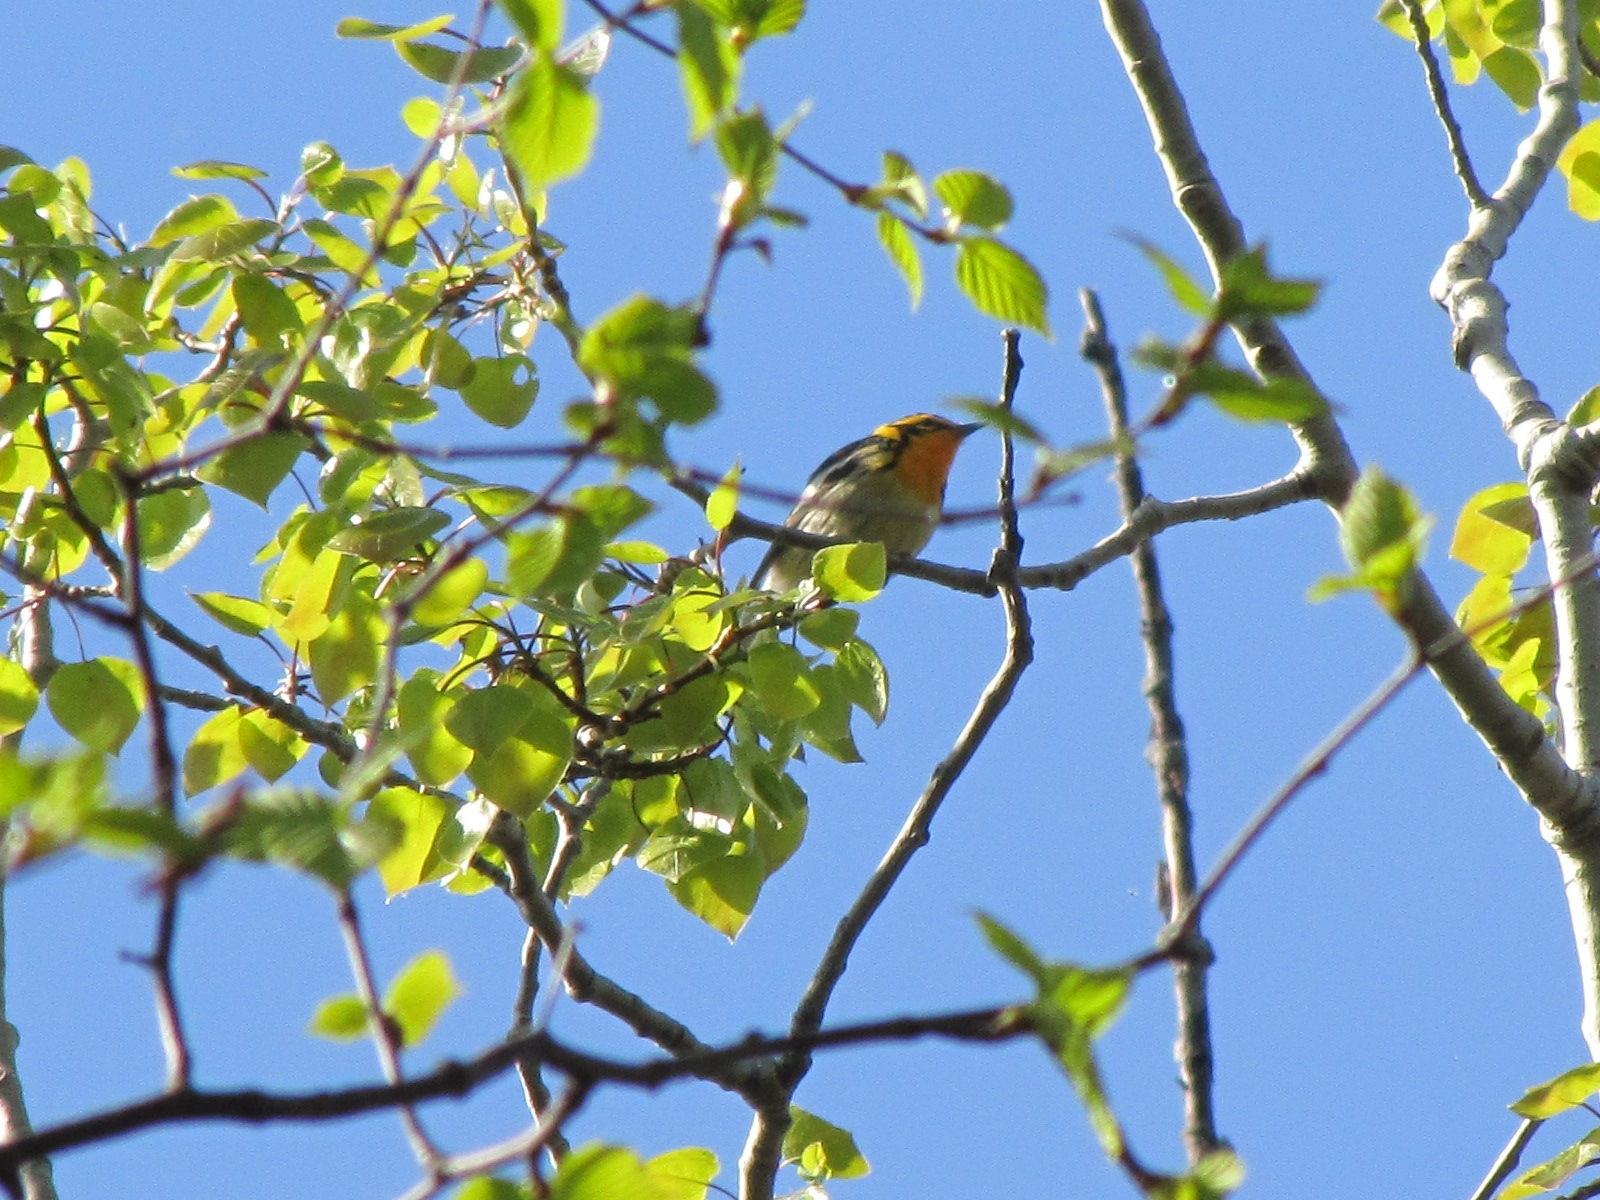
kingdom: Animalia
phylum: Chordata
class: Aves
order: Passeriformes
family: Parulidae
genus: Setophaga
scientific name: Setophaga fusca
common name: Blackburnian warbler
